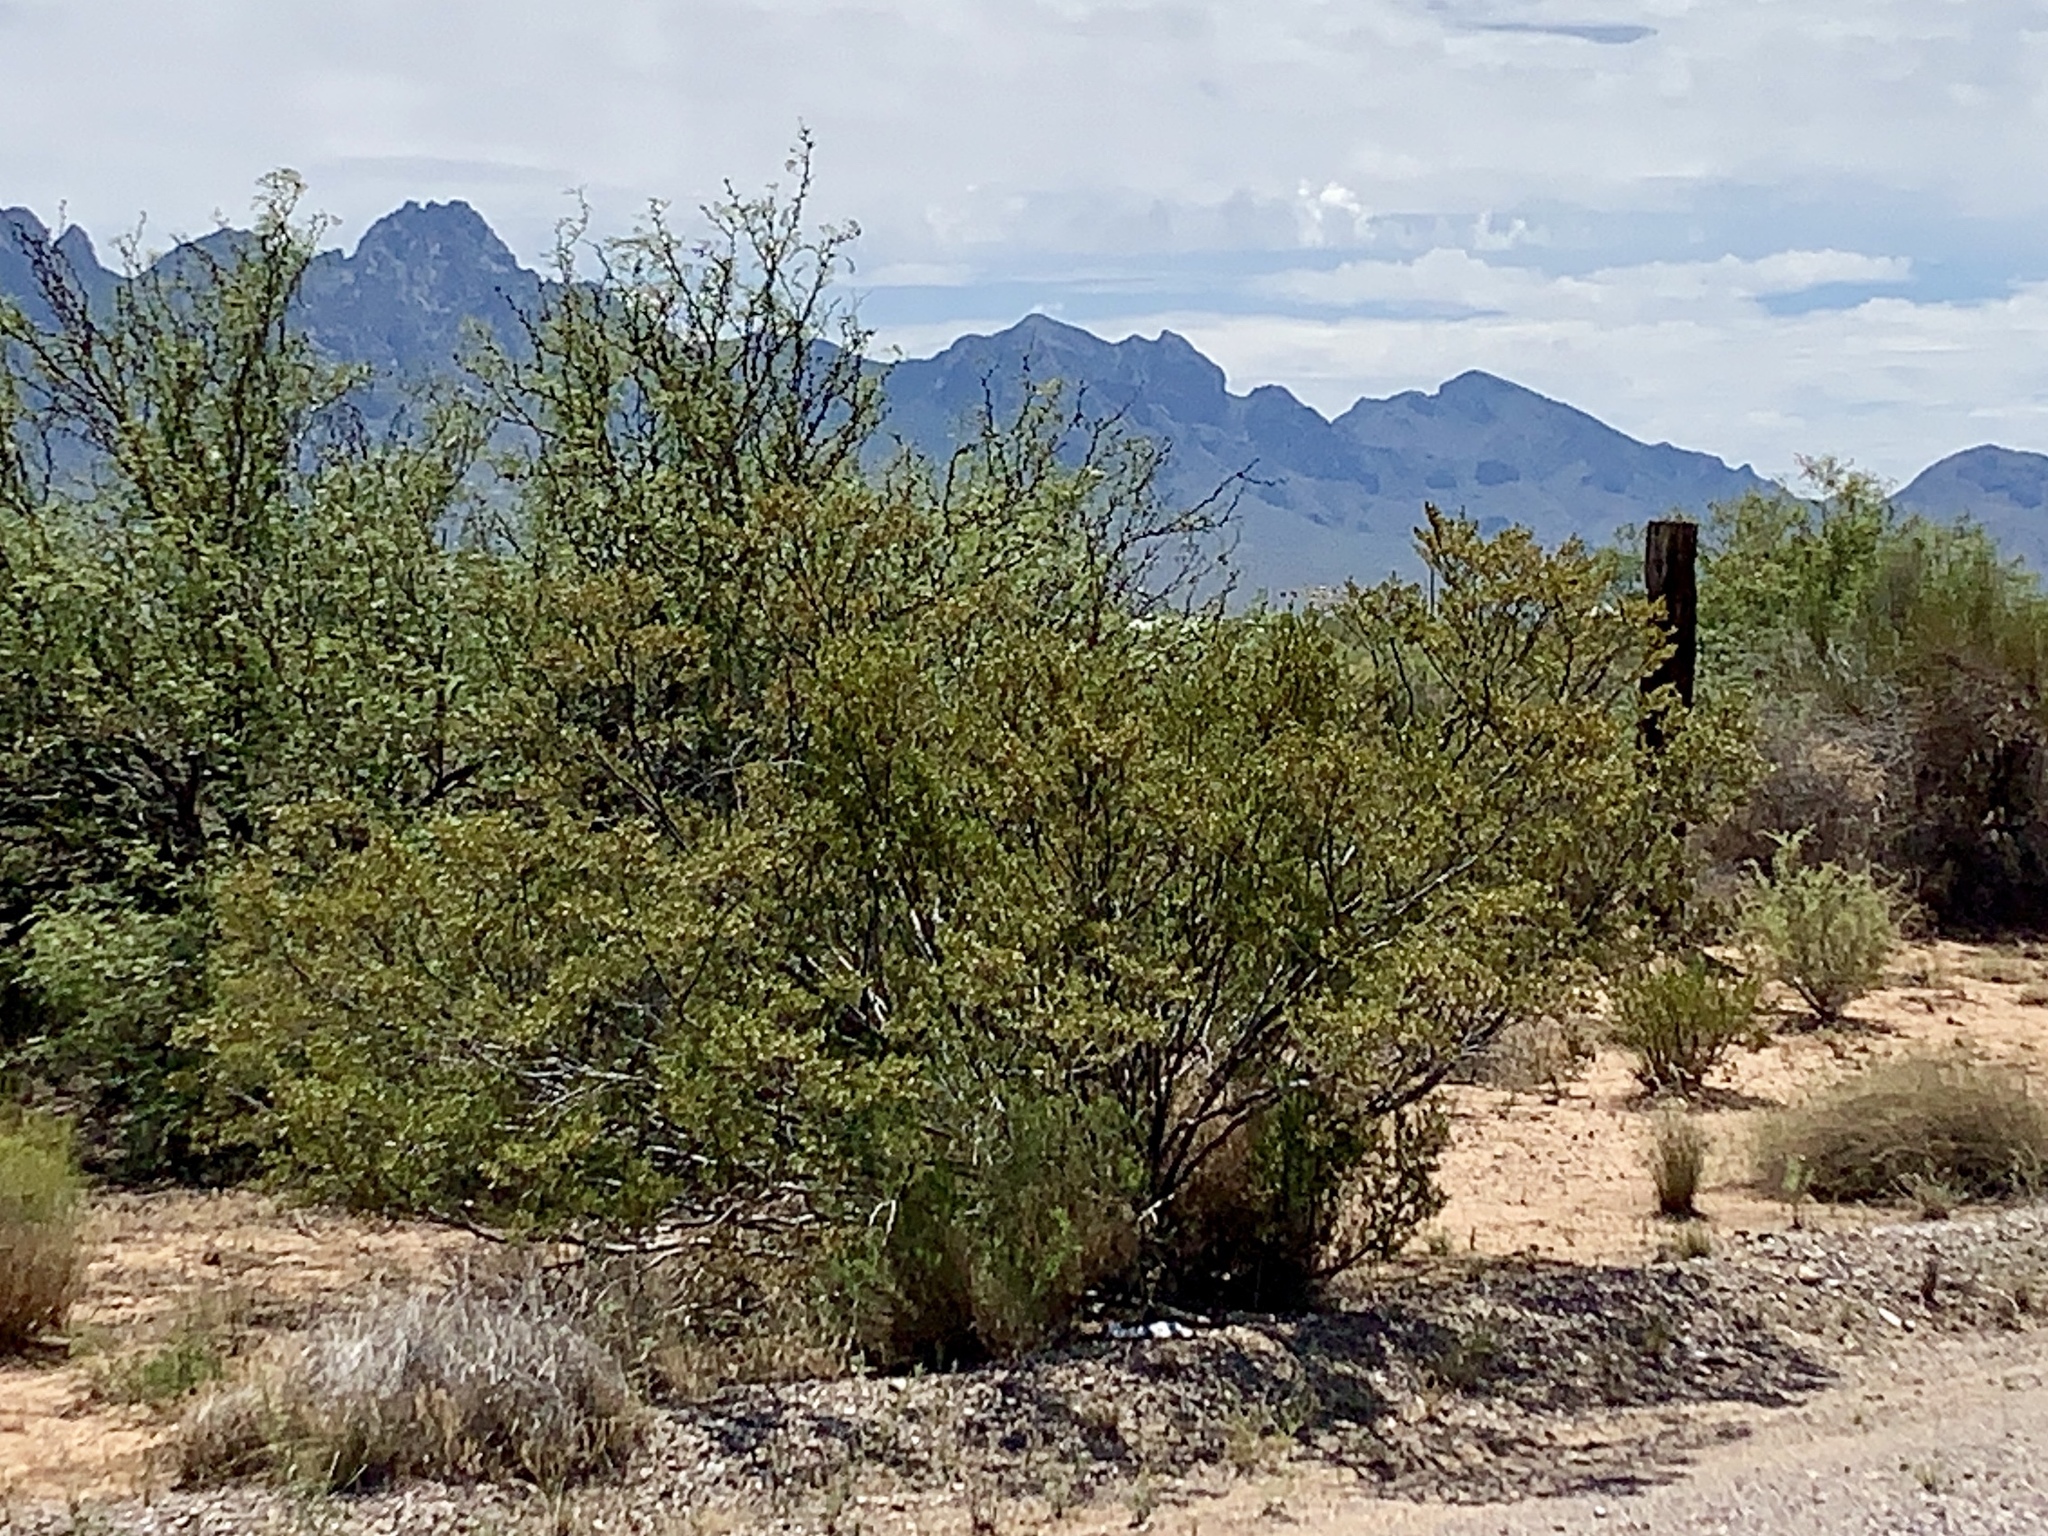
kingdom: Plantae
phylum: Tracheophyta
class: Magnoliopsida
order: Zygophyllales
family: Zygophyllaceae
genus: Larrea
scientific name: Larrea tridentata
